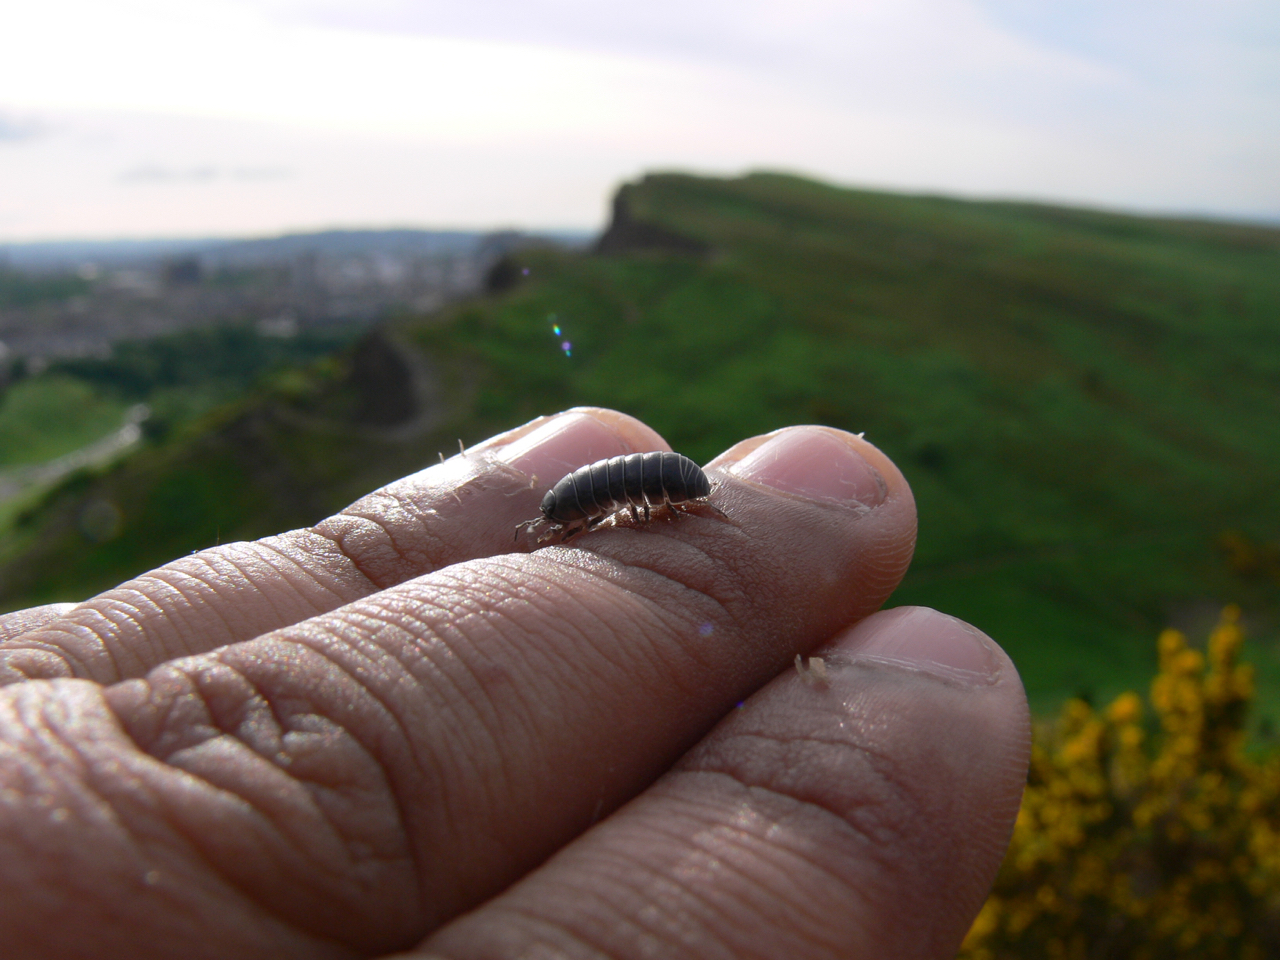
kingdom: Animalia
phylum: Arthropoda
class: Malacostraca
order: Isopoda
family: Armadillidiidae
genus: Armadillidium
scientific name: Armadillidium vulgare
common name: Common pill woodlouse
